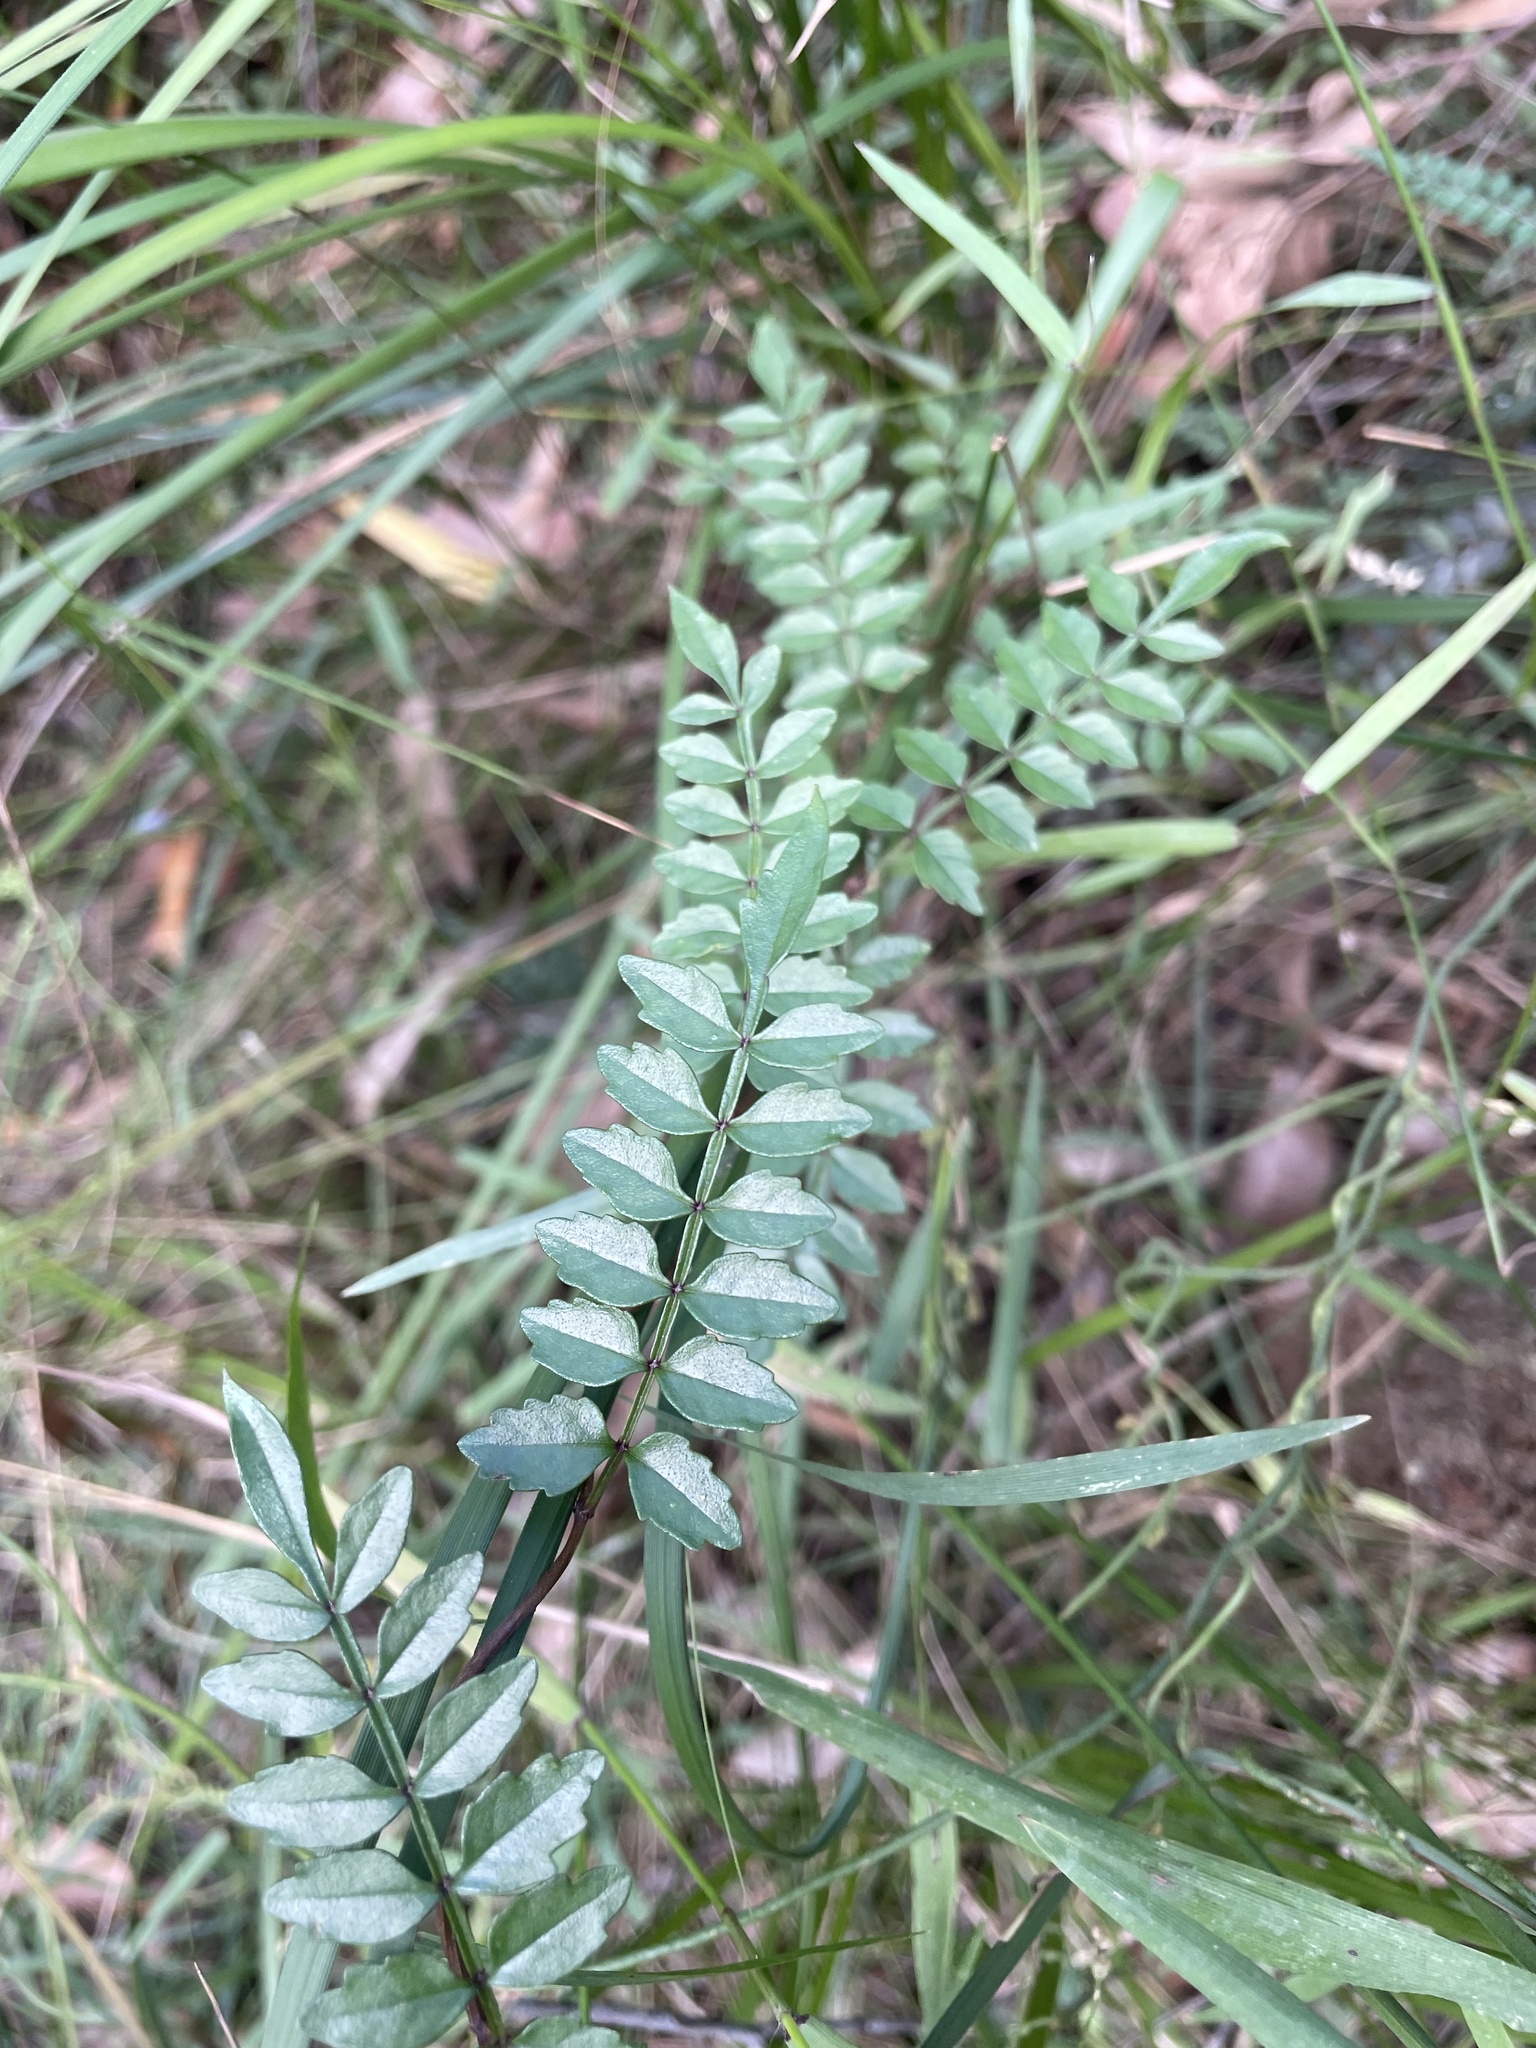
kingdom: Plantae
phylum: Tracheophyta
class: Magnoliopsida
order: Lamiales
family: Bignoniaceae
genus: Pandorea
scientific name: Pandorea pandorana
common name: Wonga-wonga-vine
